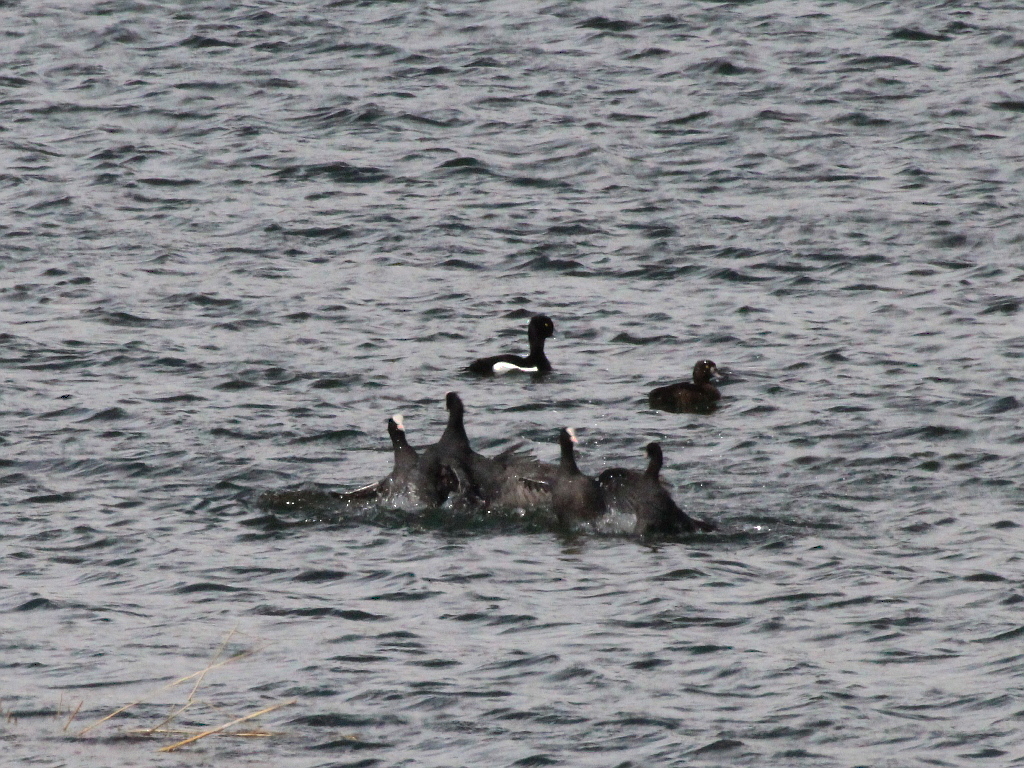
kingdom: Animalia
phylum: Chordata
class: Aves
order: Gruiformes
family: Rallidae
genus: Fulica
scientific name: Fulica atra
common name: Eurasian coot
